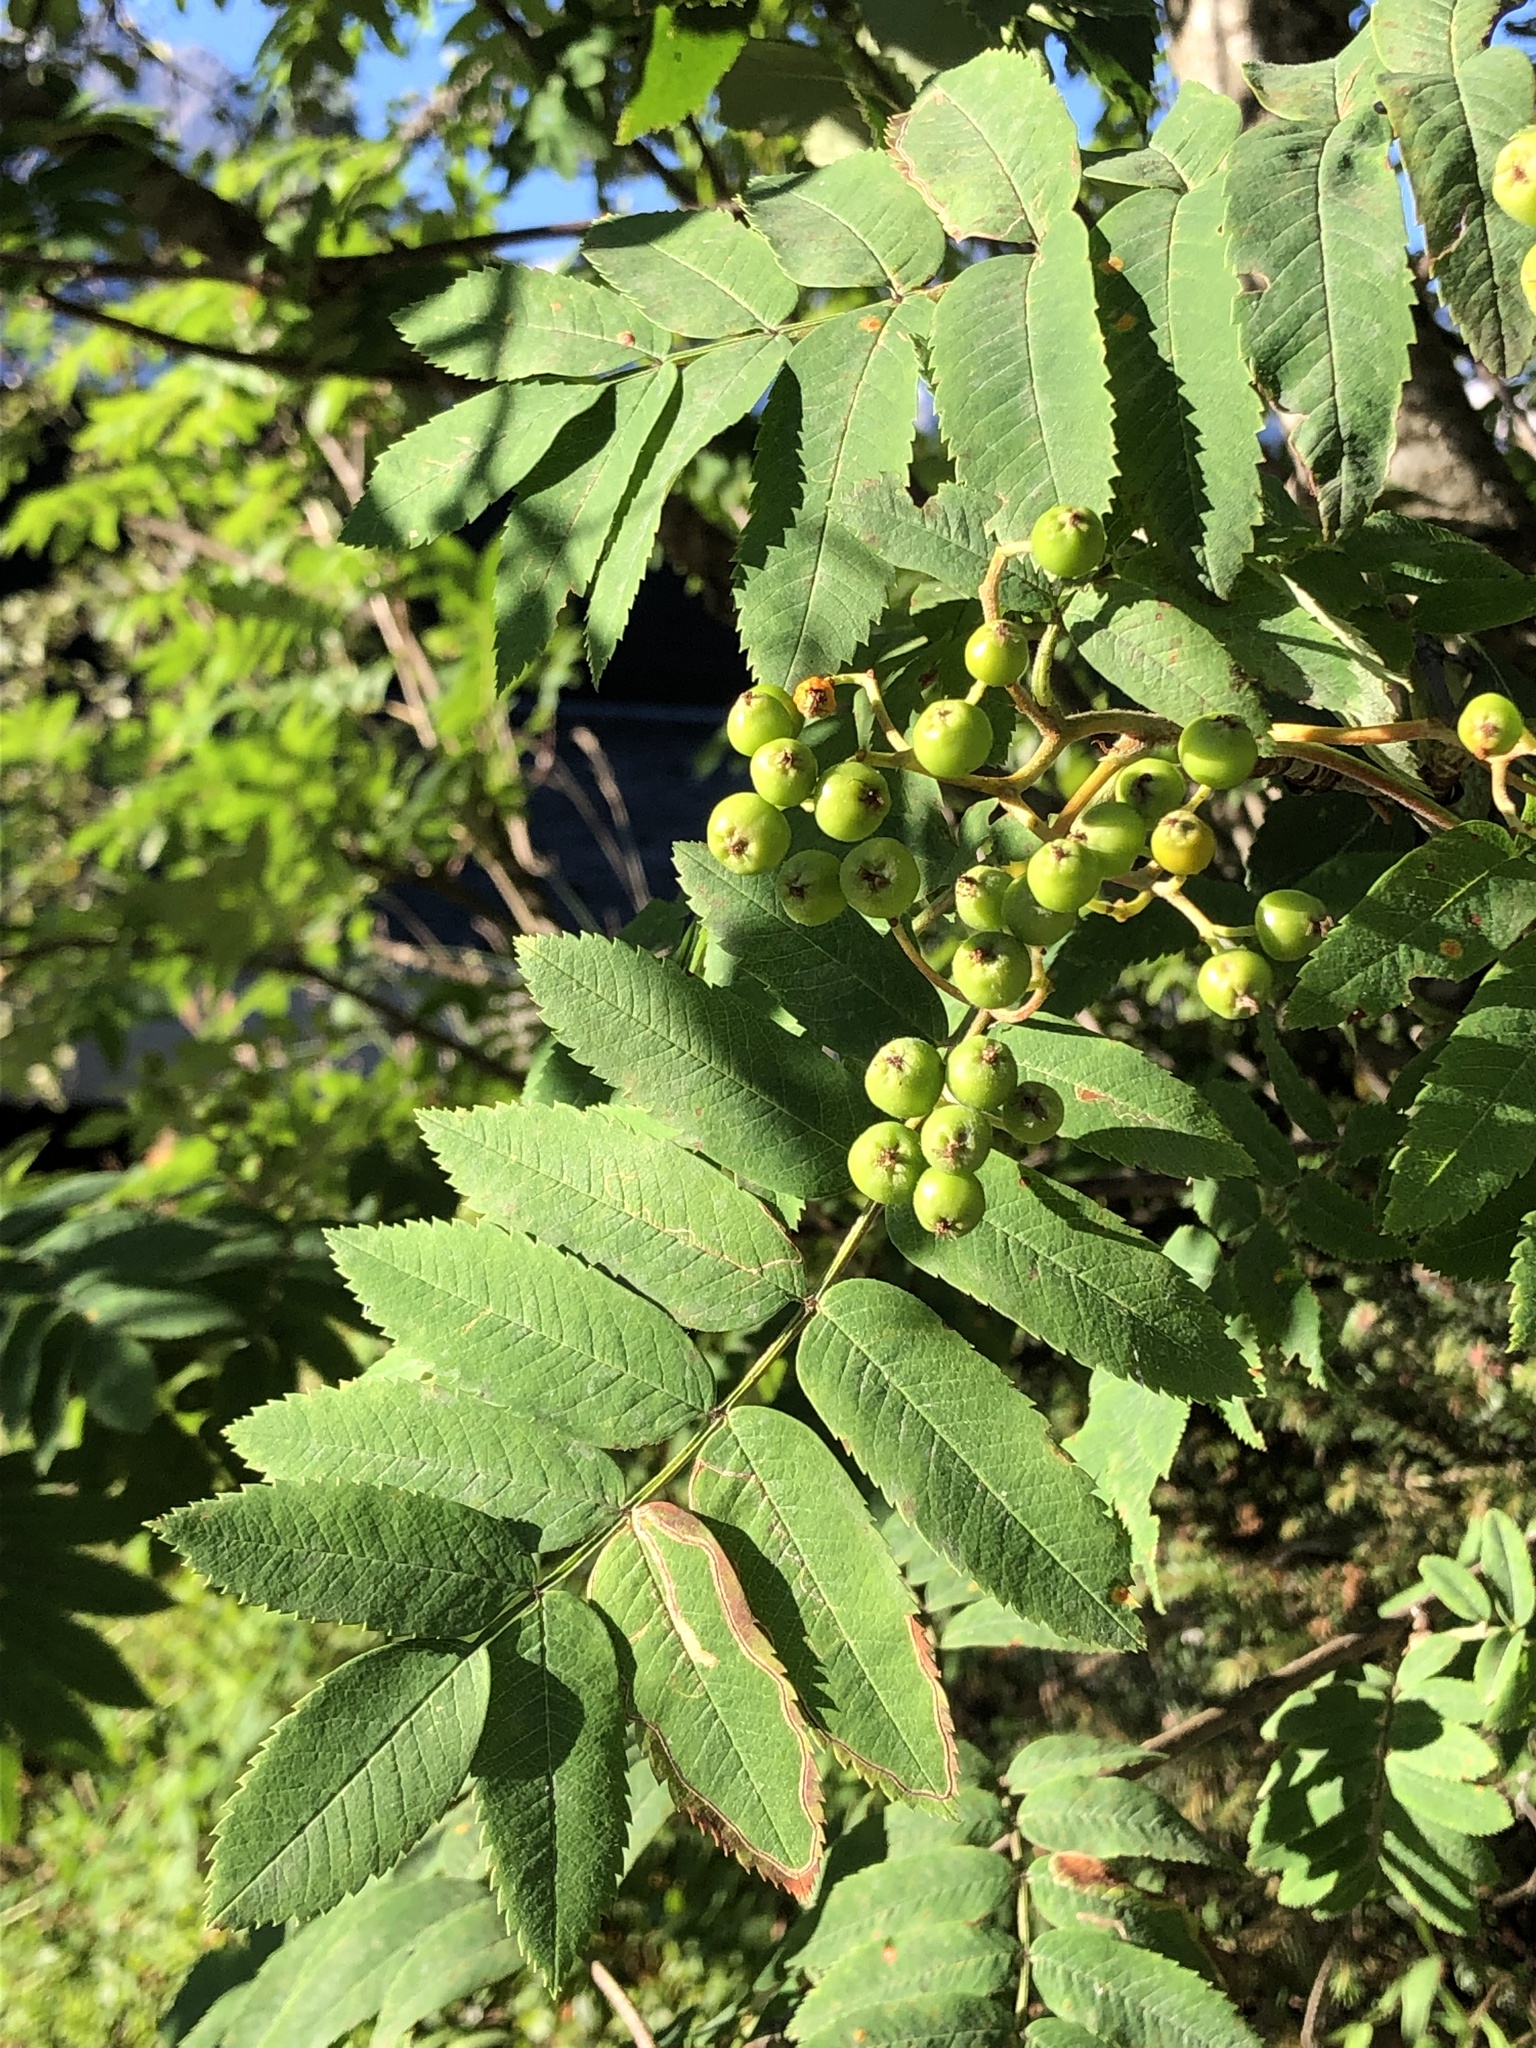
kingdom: Plantae
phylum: Tracheophyta
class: Magnoliopsida
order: Rosales
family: Rosaceae
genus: Sorbus
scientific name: Sorbus aucuparia
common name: Rowan
